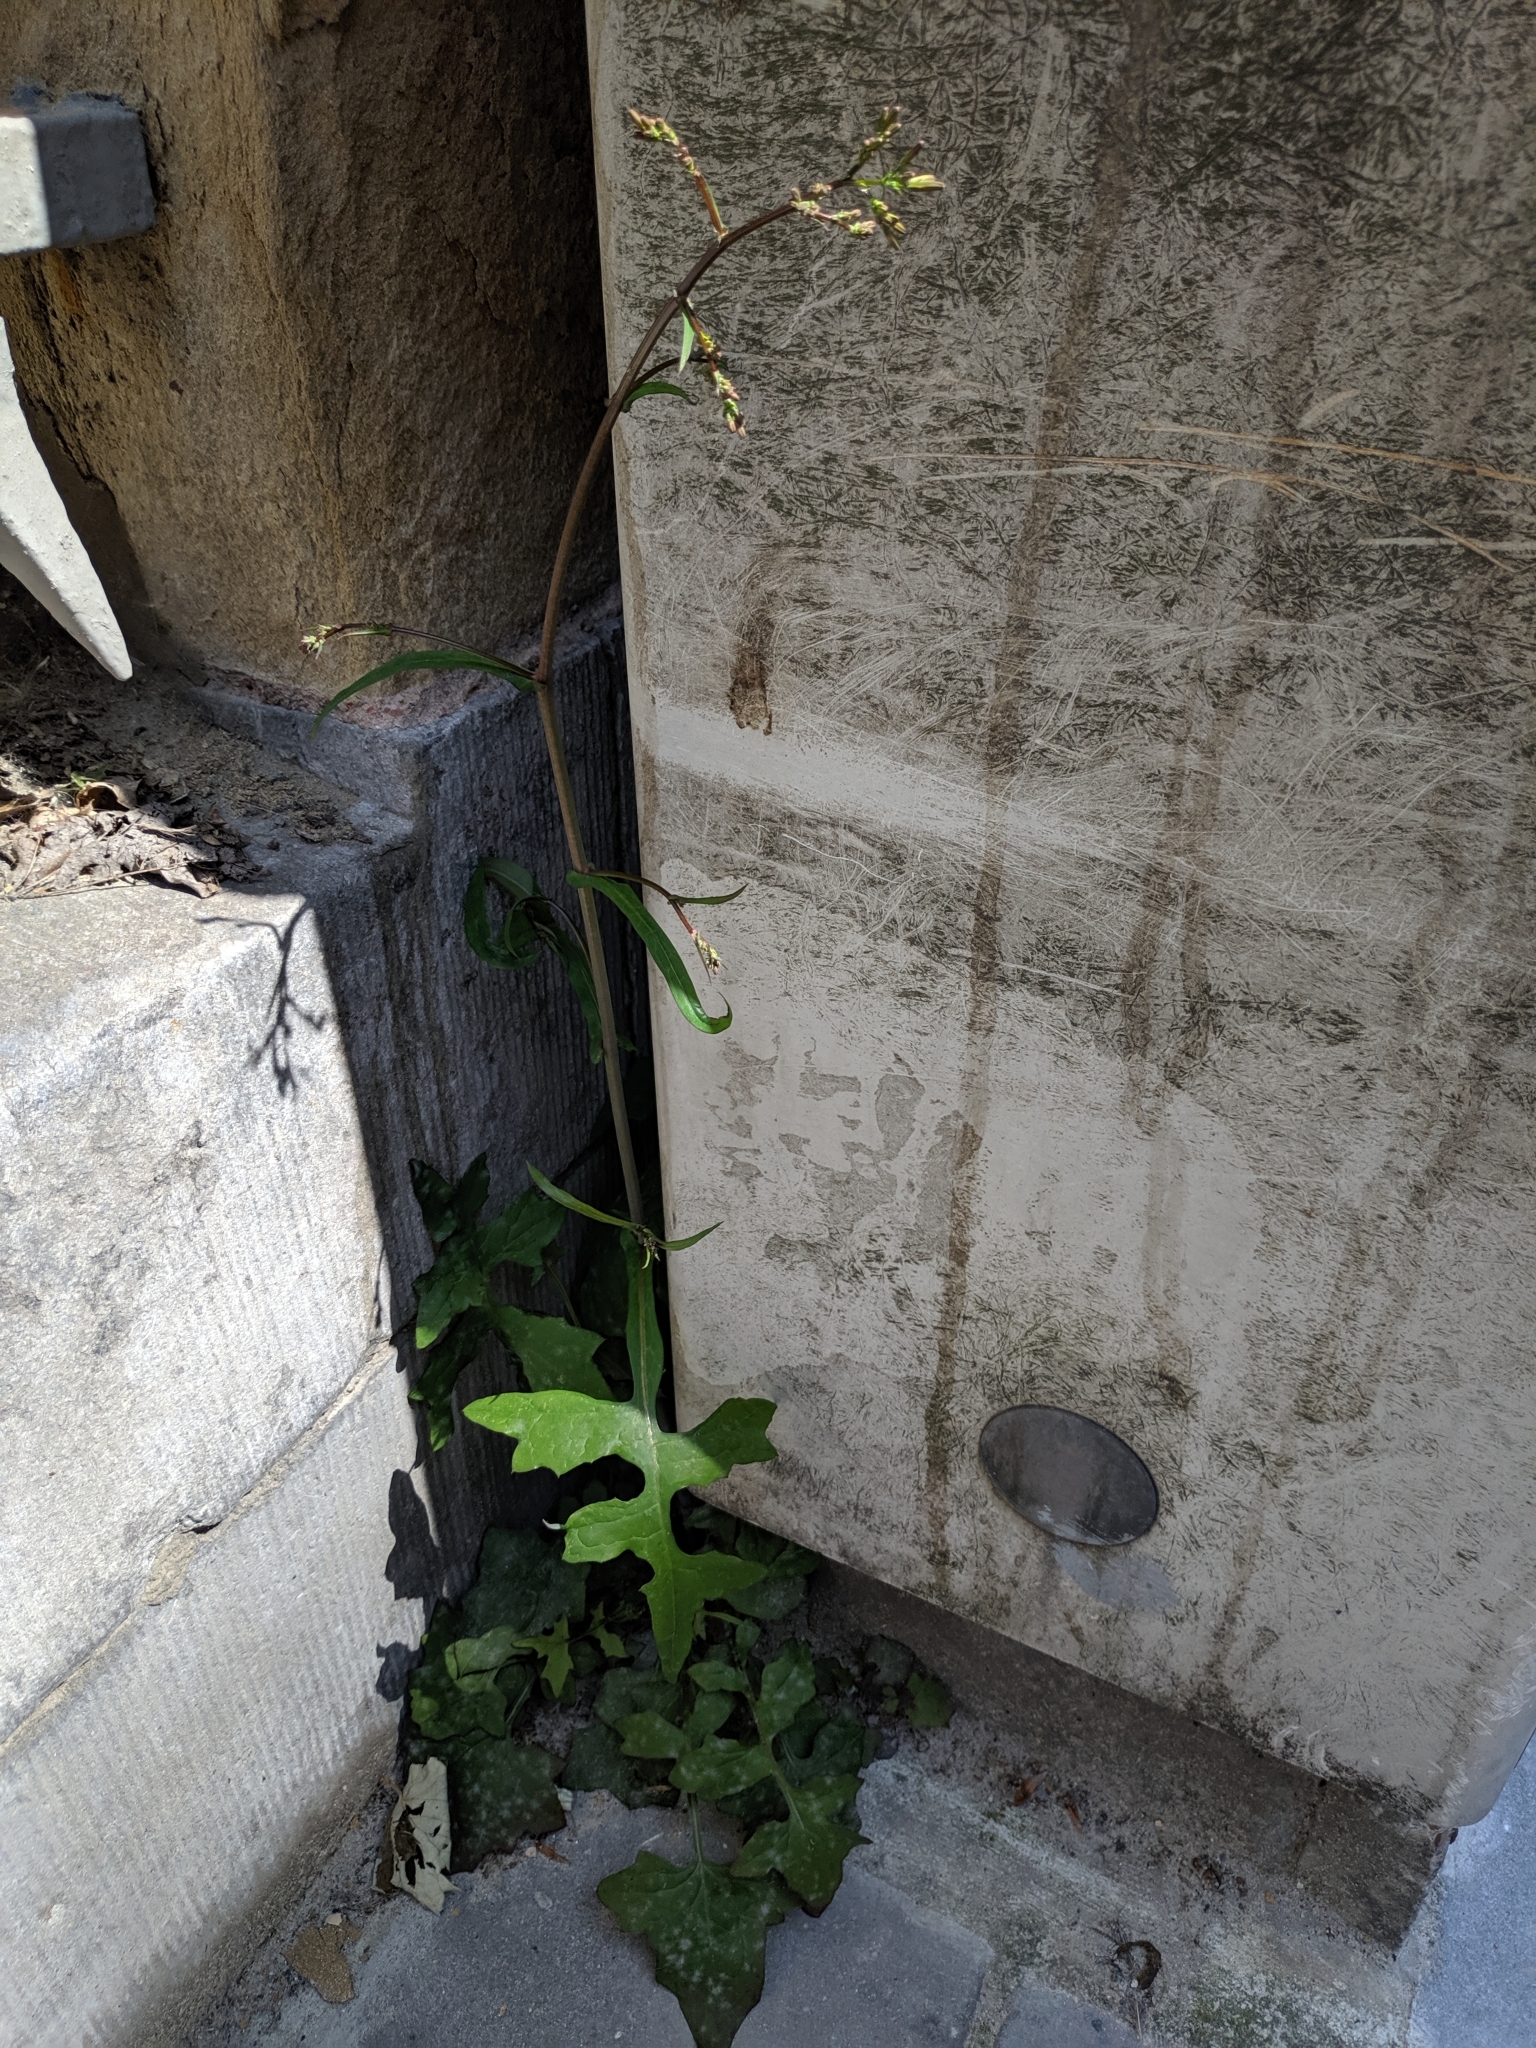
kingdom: Plantae
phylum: Tracheophyta
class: Magnoliopsida
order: Asterales
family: Asteraceae
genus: Mycelis
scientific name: Mycelis muralis
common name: Wall lettuce
